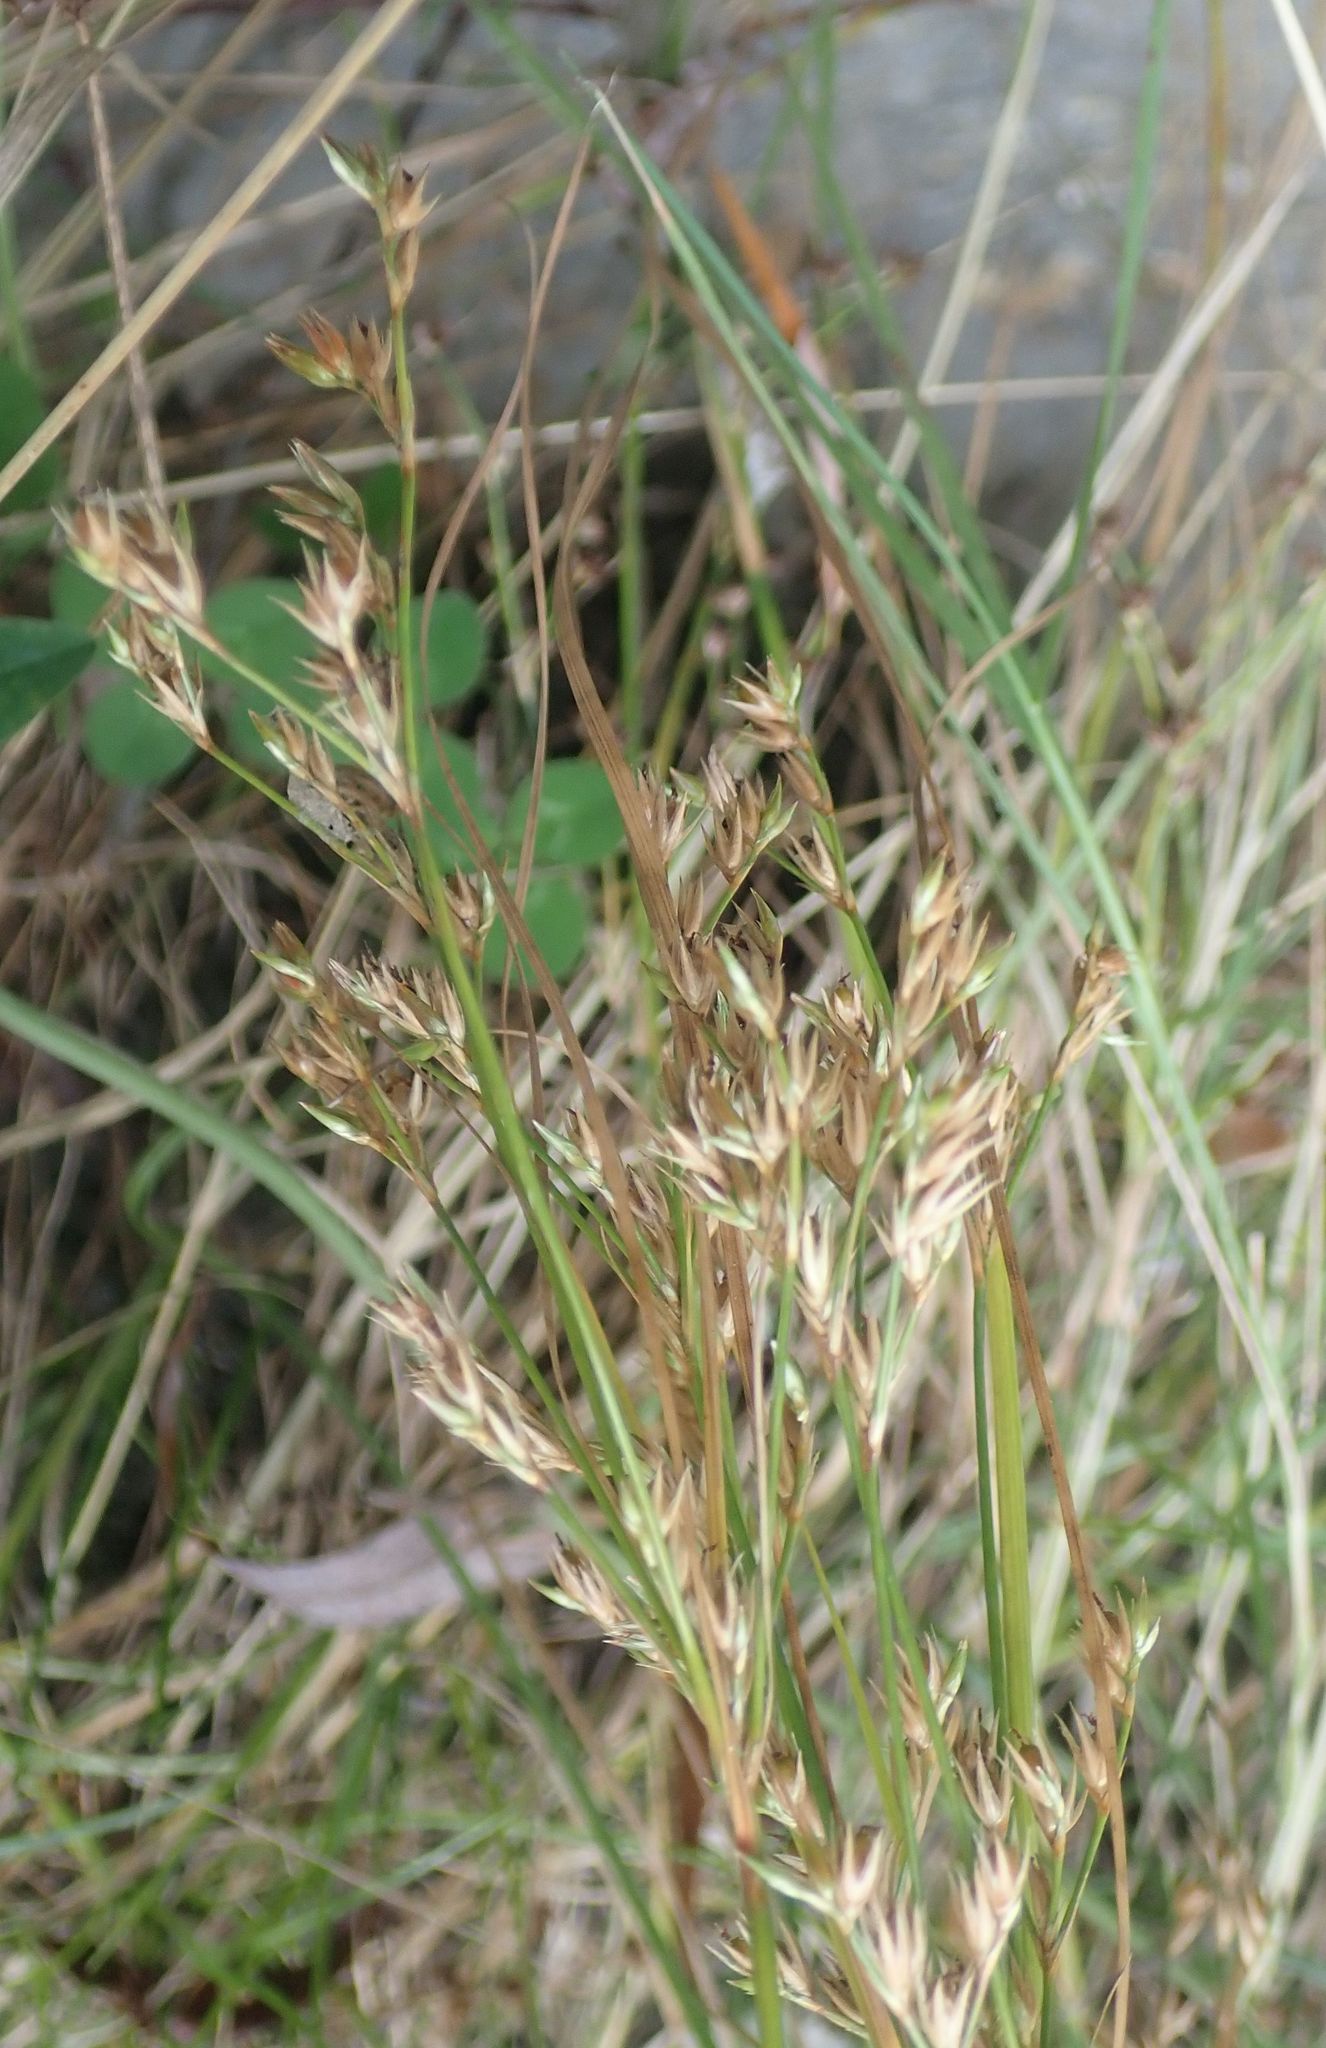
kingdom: Plantae
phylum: Tracheophyta
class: Liliopsida
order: Poales
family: Juncaceae
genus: Juncus
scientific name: Juncus tenuis
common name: Slender rush
